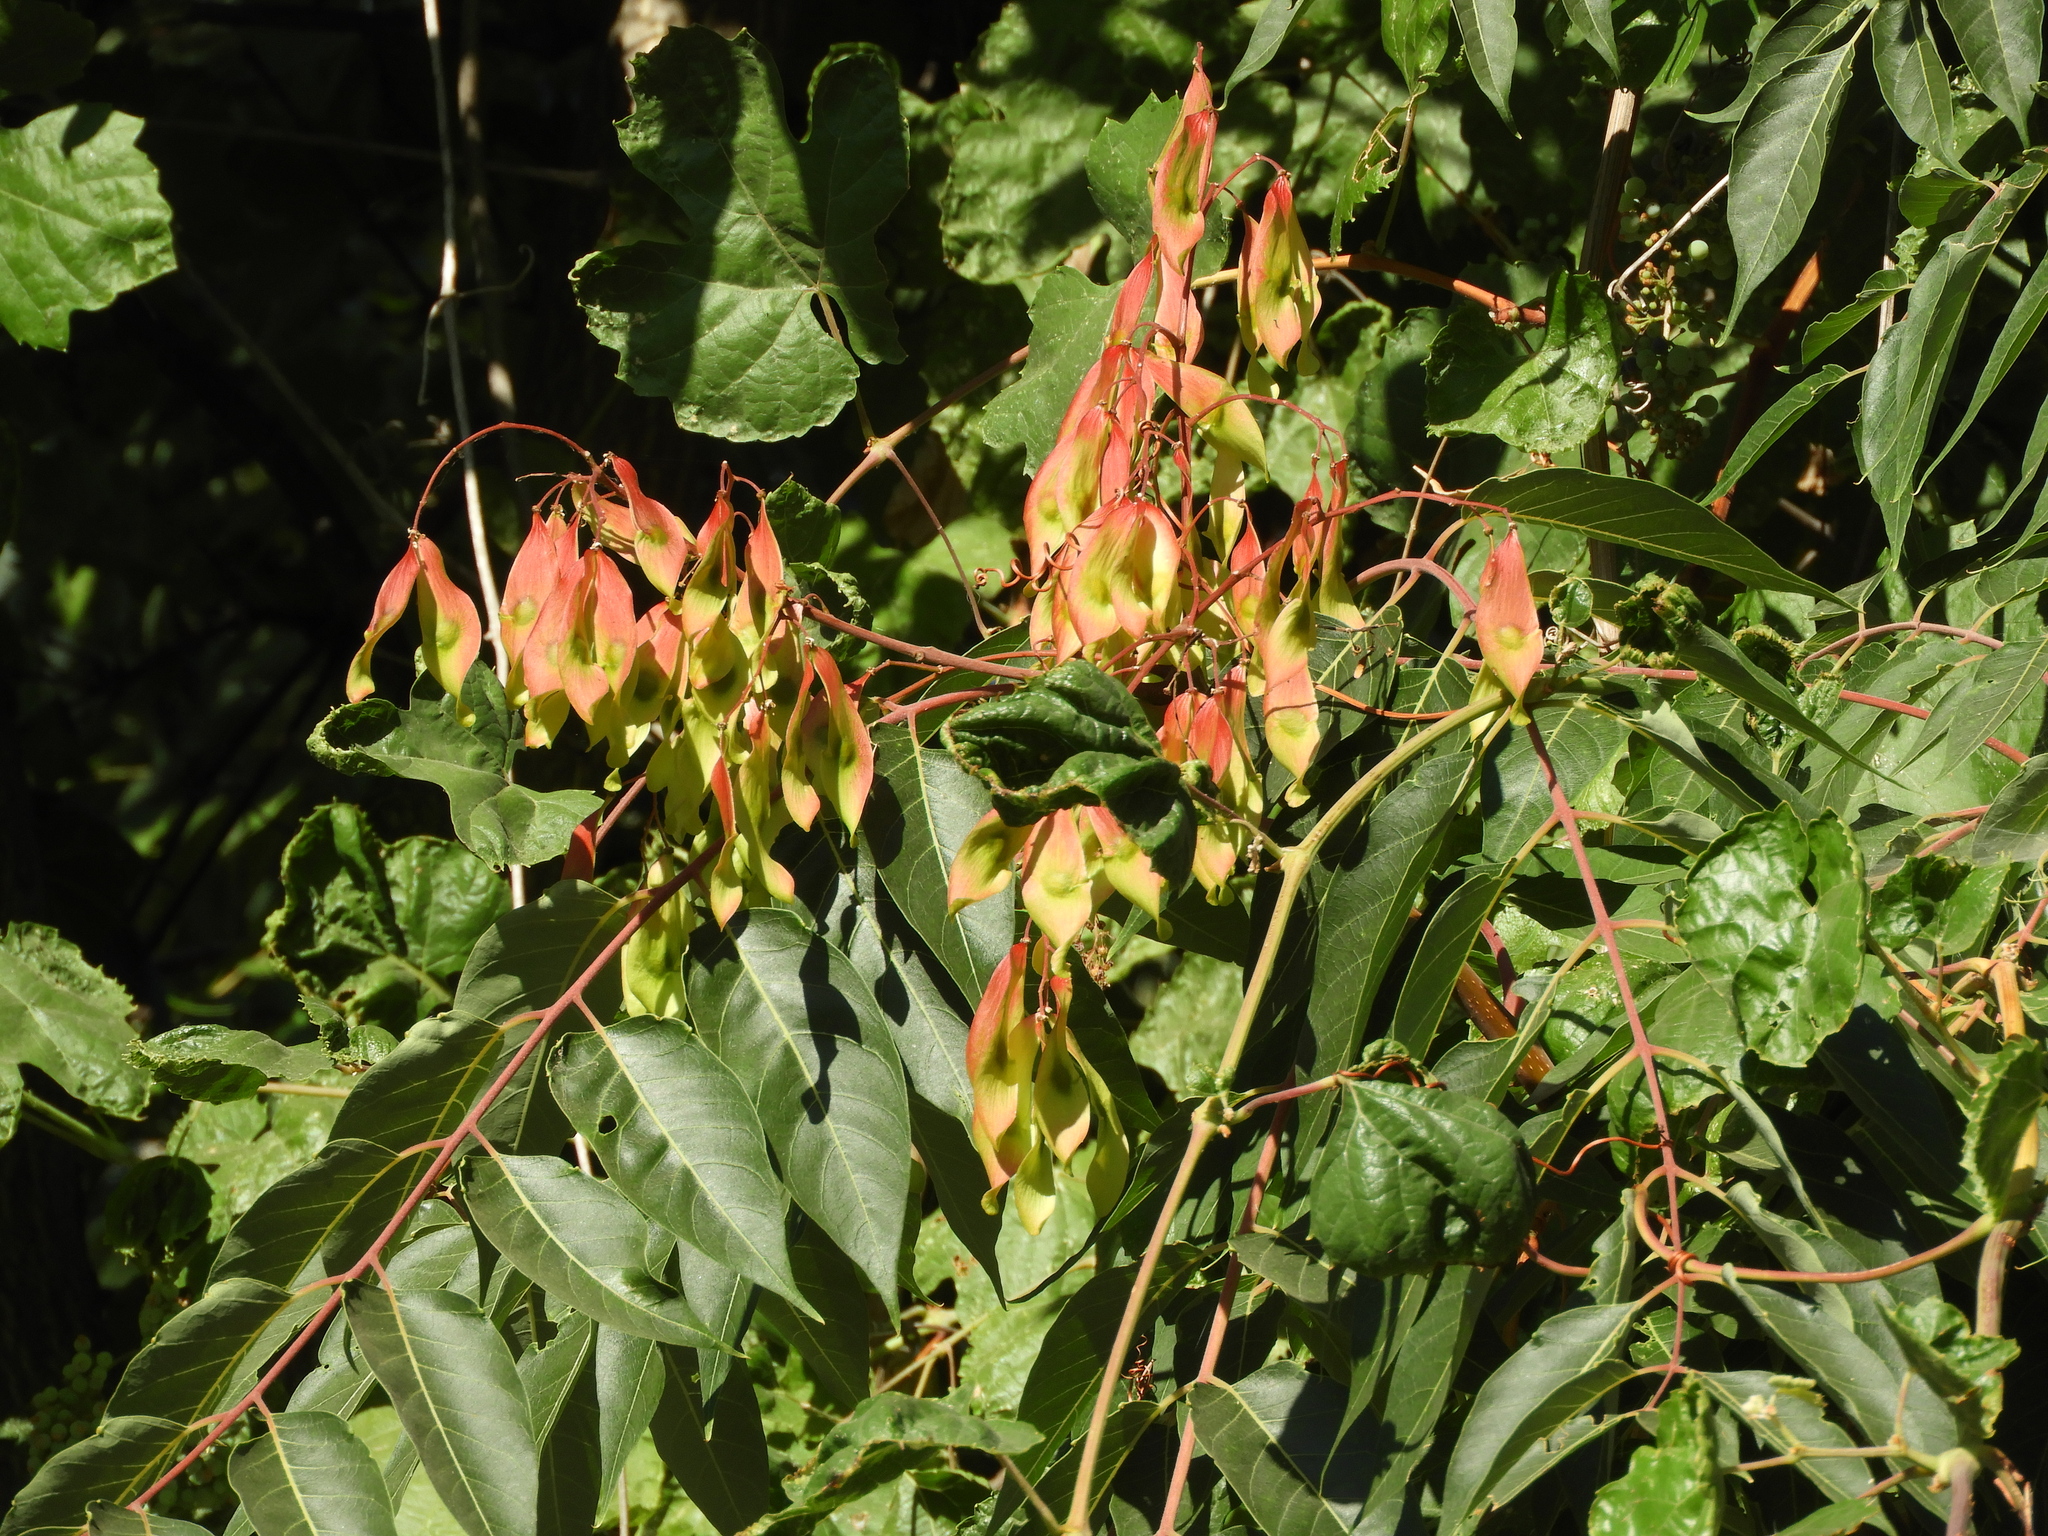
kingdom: Plantae
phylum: Tracheophyta
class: Magnoliopsida
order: Sapindales
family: Simaroubaceae
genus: Ailanthus
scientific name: Ailanthus altissima
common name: Tree-of-heaven
